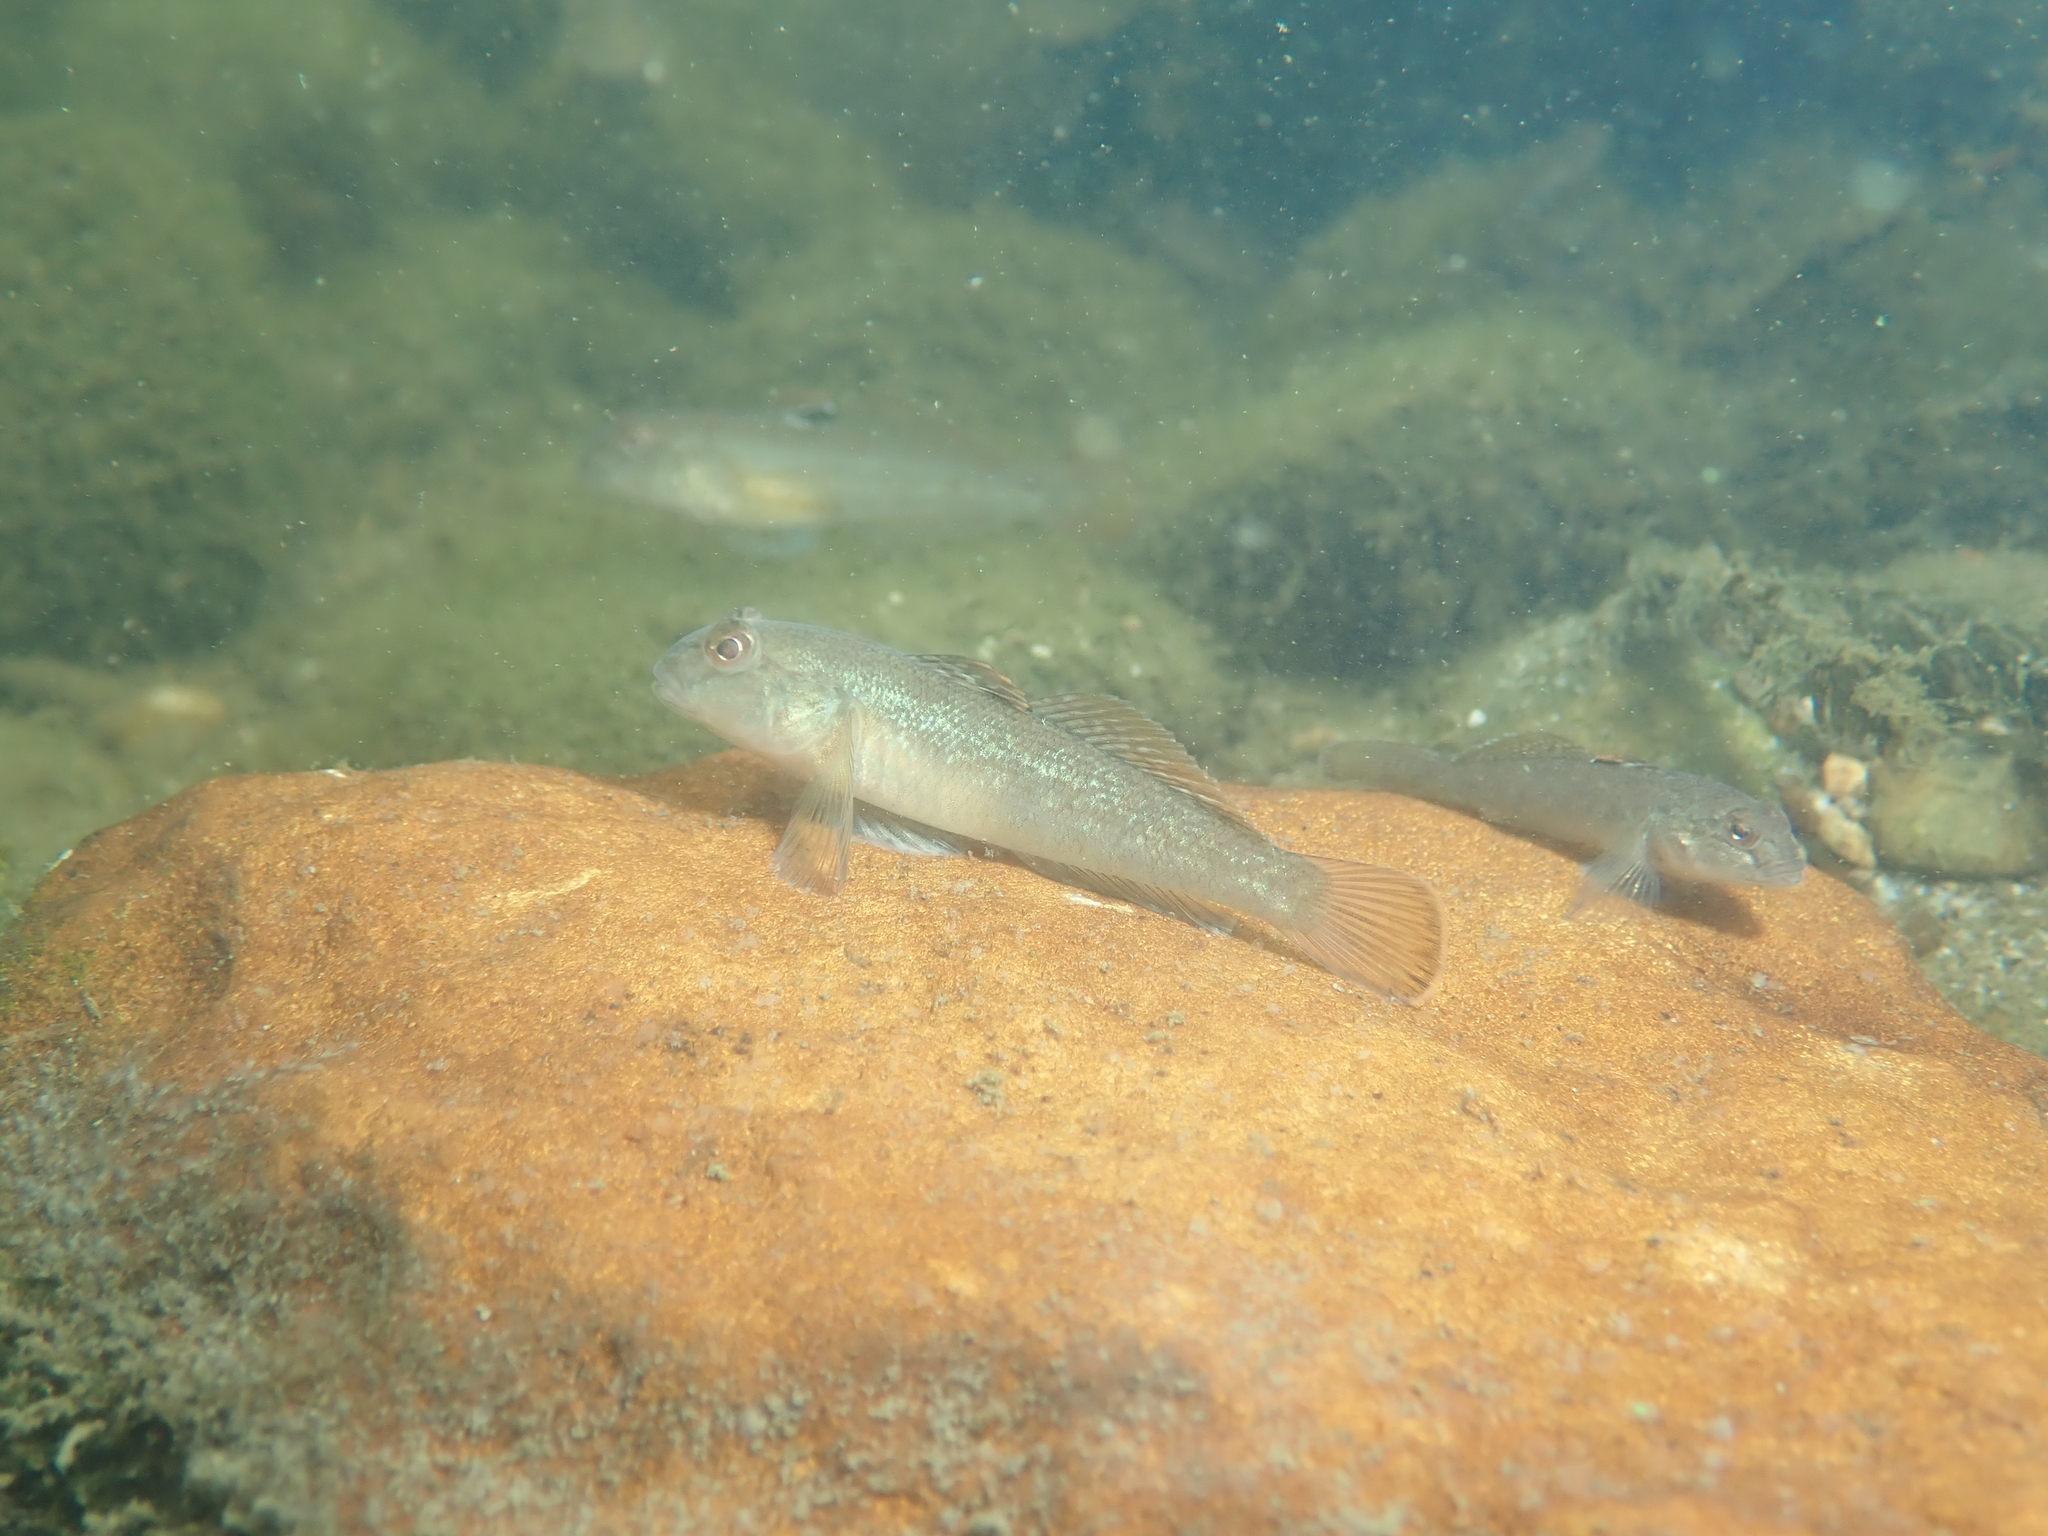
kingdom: Animalia
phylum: Chordata
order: Perciformes
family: Gobiidae
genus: Neogobius
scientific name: Neogobius melanostomus
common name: Round goby
